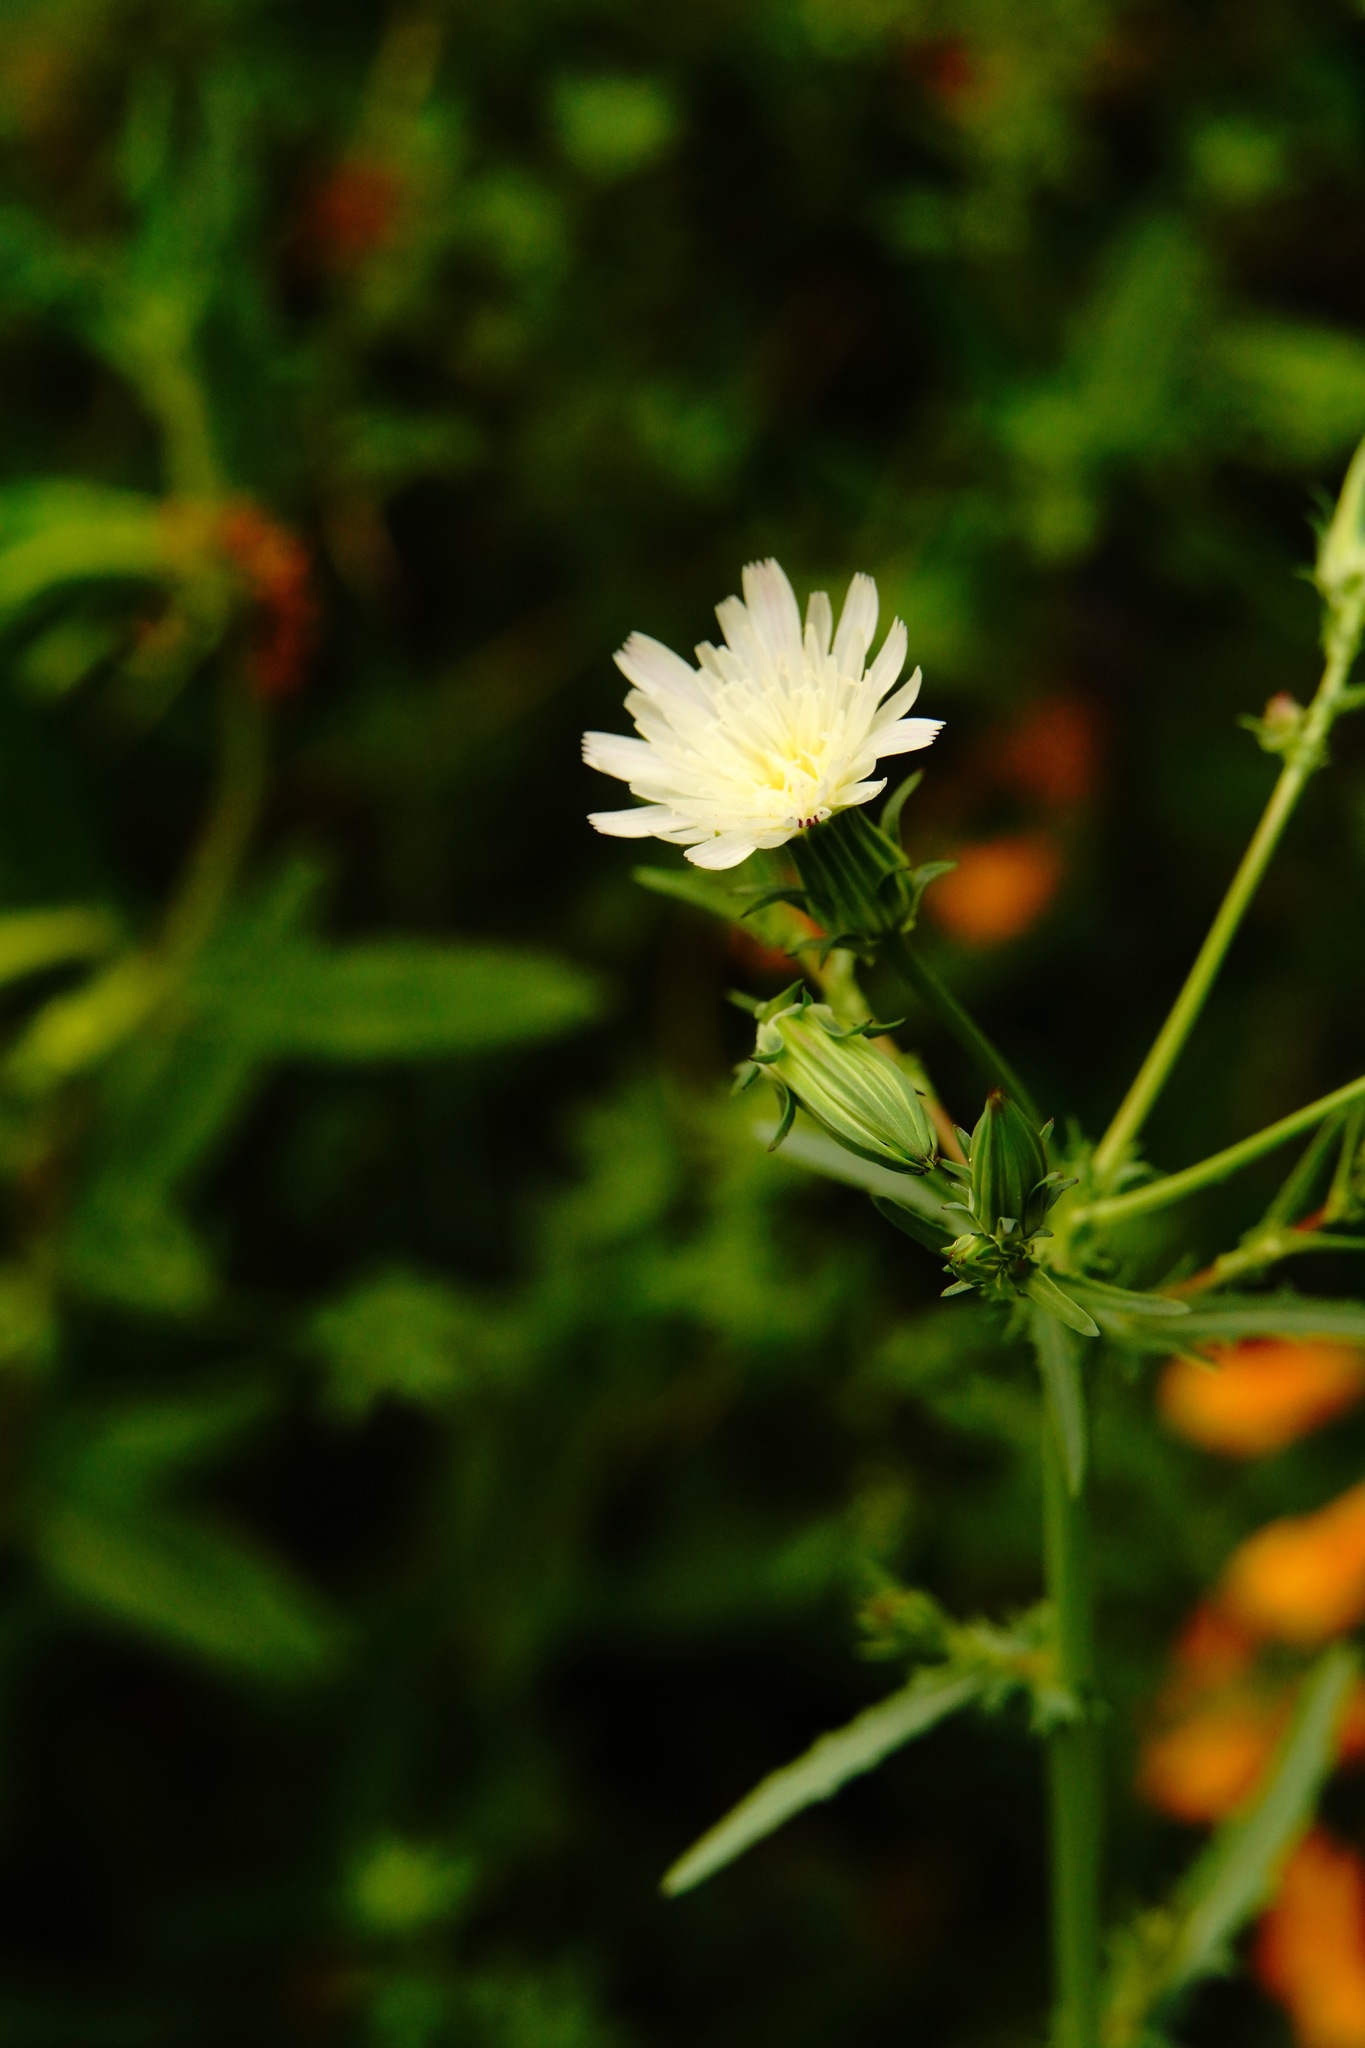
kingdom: Plantae
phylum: Tracheophyta
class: Magnoliopsida
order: Asterales
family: Asteraceae
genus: Rafinesquia
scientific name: Rafinesquia californica
